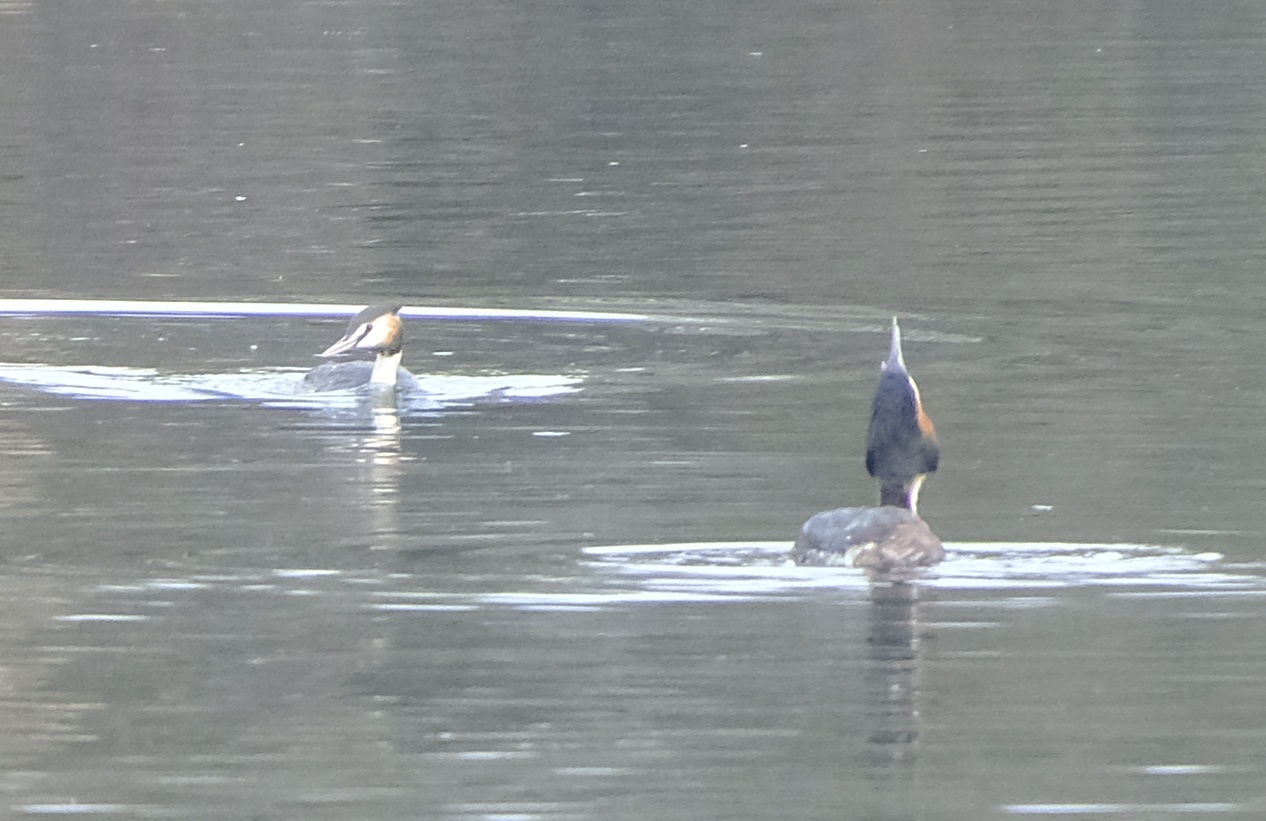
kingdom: Animalia
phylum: Chordata
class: Aves
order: Podicipediformes
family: Podicipedidae
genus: Podiceps
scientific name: Podiceps cristatus
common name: Great crested grebe
